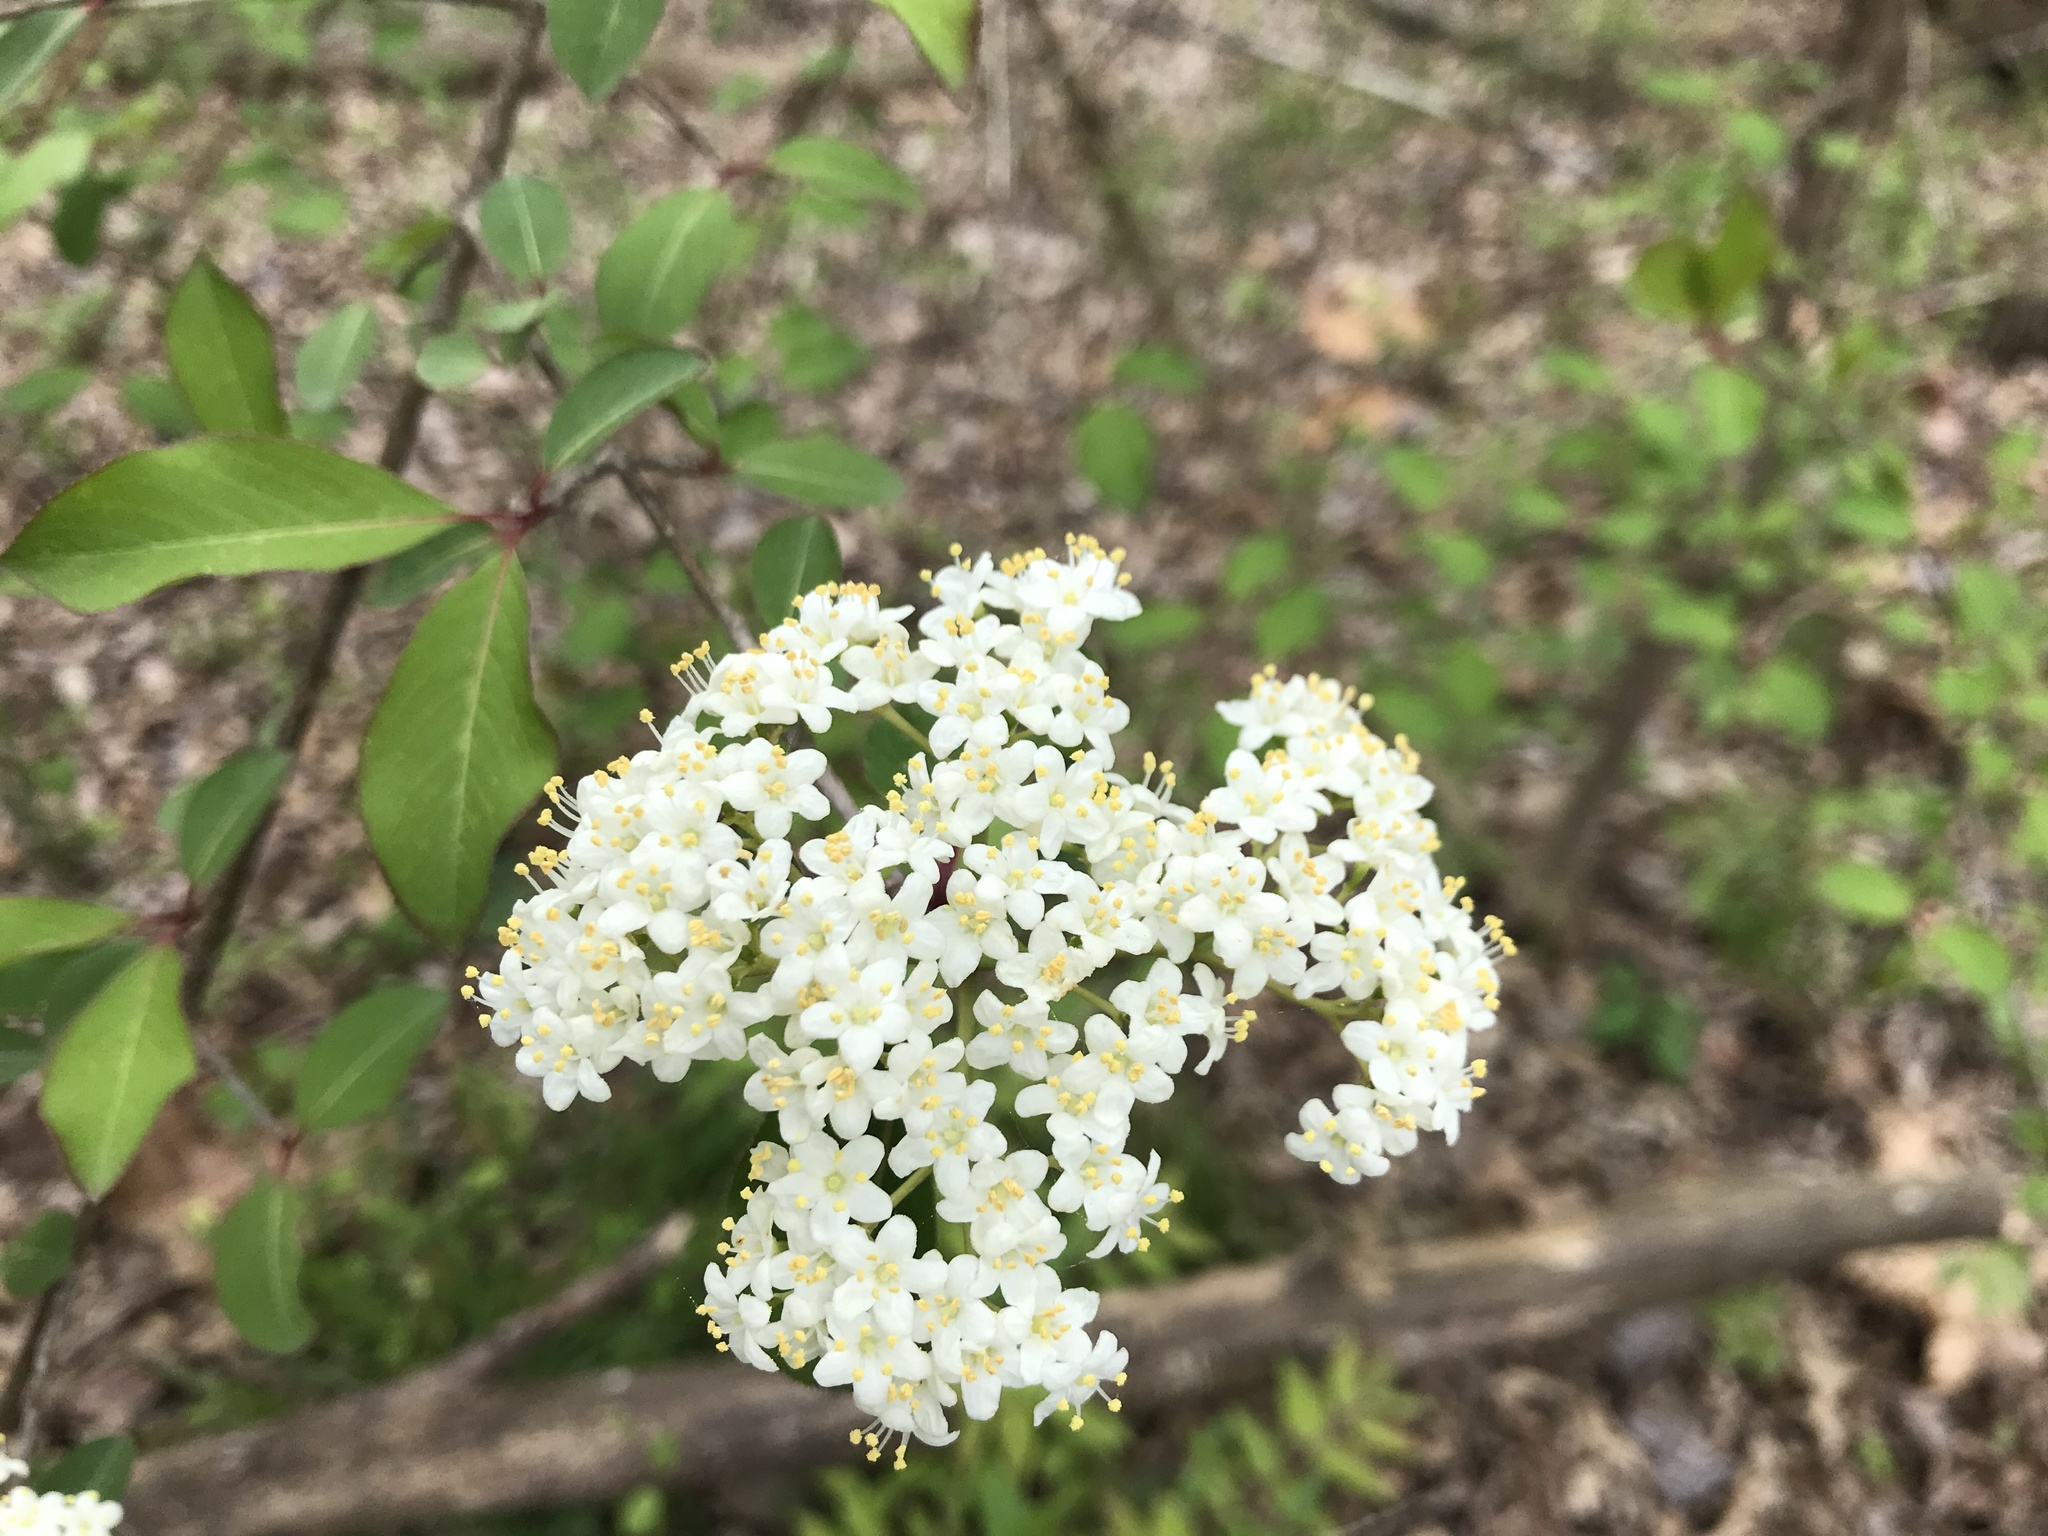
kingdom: Plantae
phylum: Tracheophyta
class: Magnoliopsida
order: Dipsacales
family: Viburnaceae
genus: Viburnum
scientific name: Viburnum prunifolium
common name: Black haw
